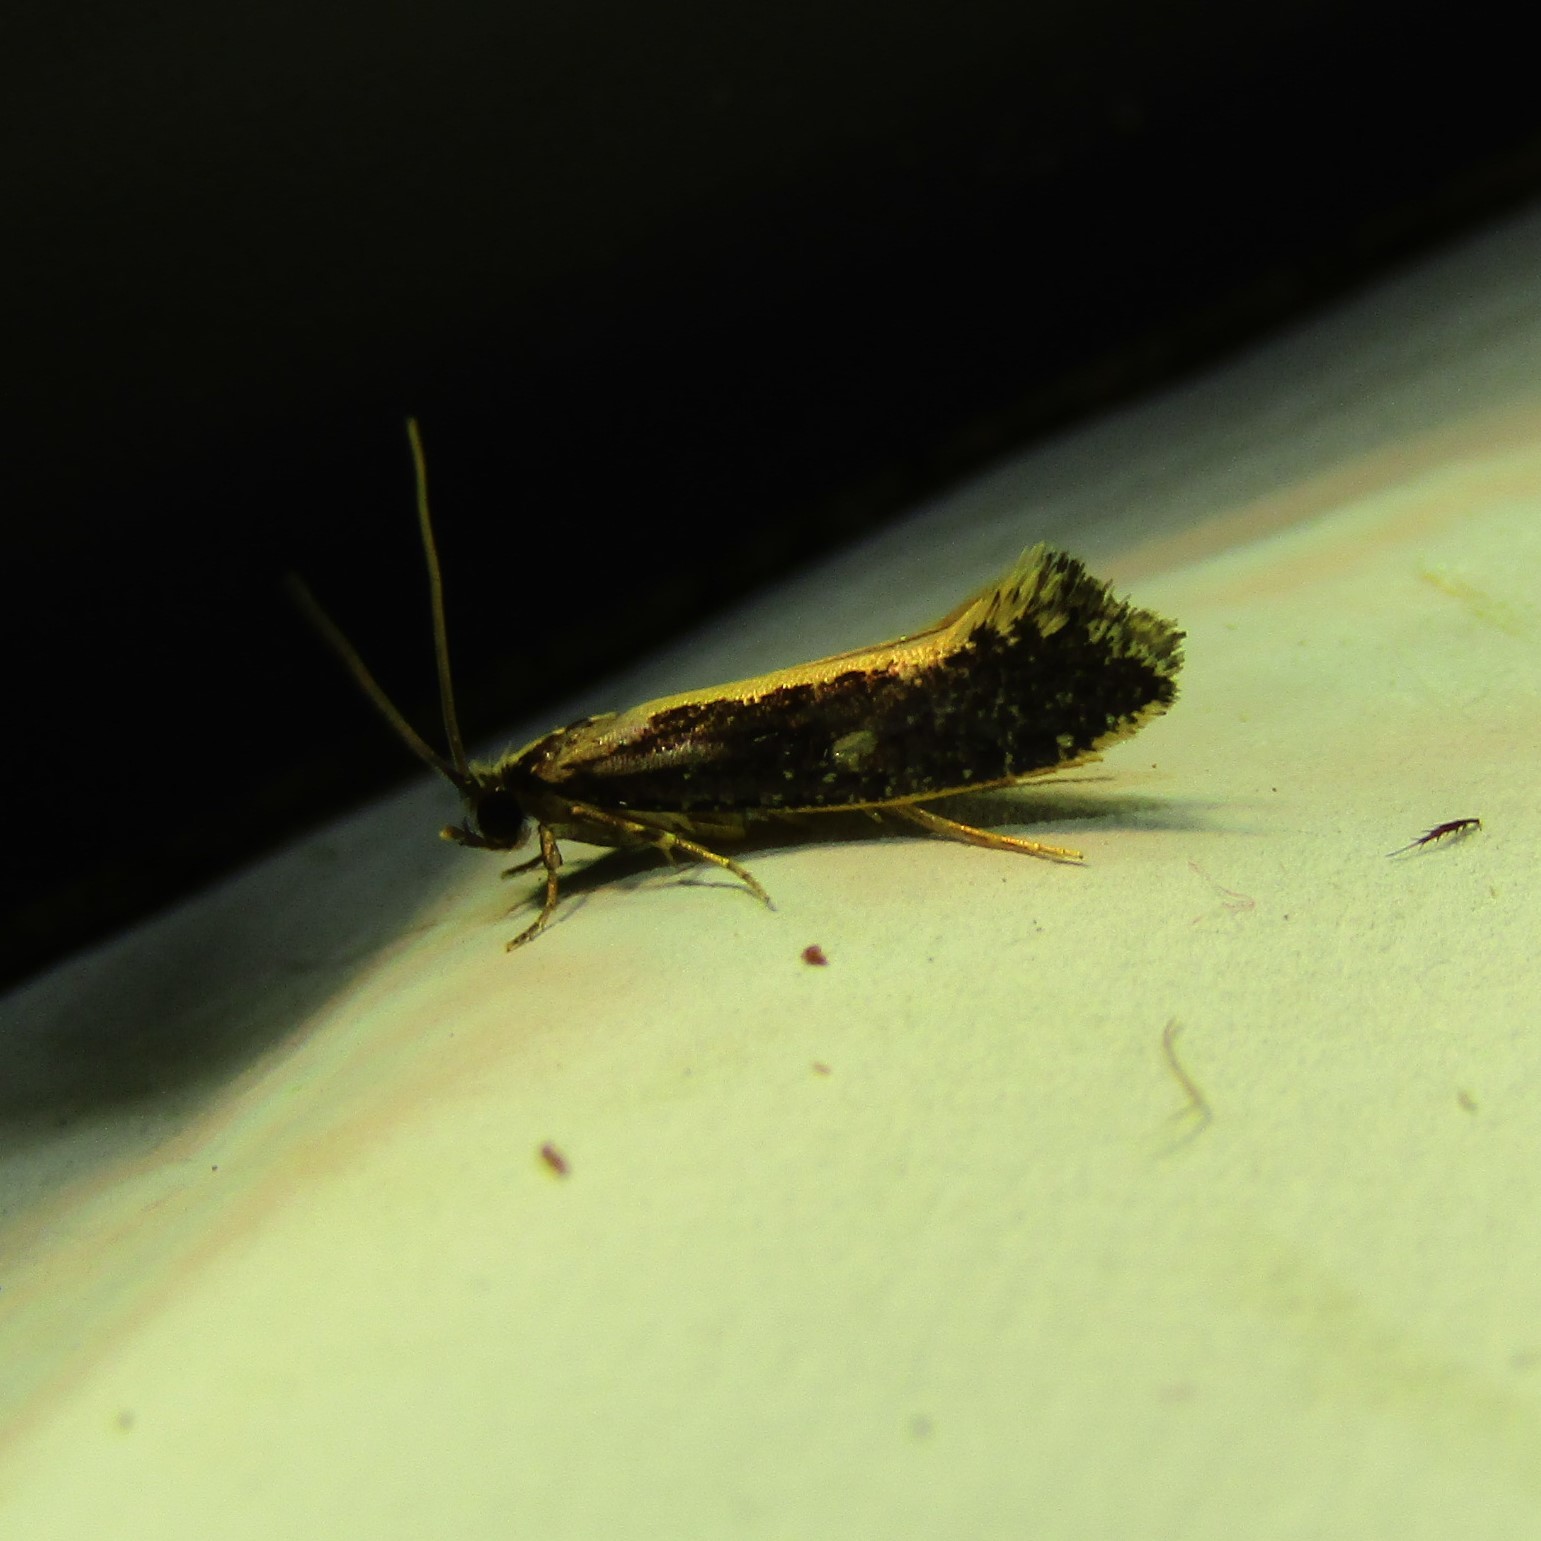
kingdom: Animalia
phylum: Arthropoda
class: Insecta
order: Lepidoptera
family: Tineidae
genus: Monopis
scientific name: Monopis ethelella
